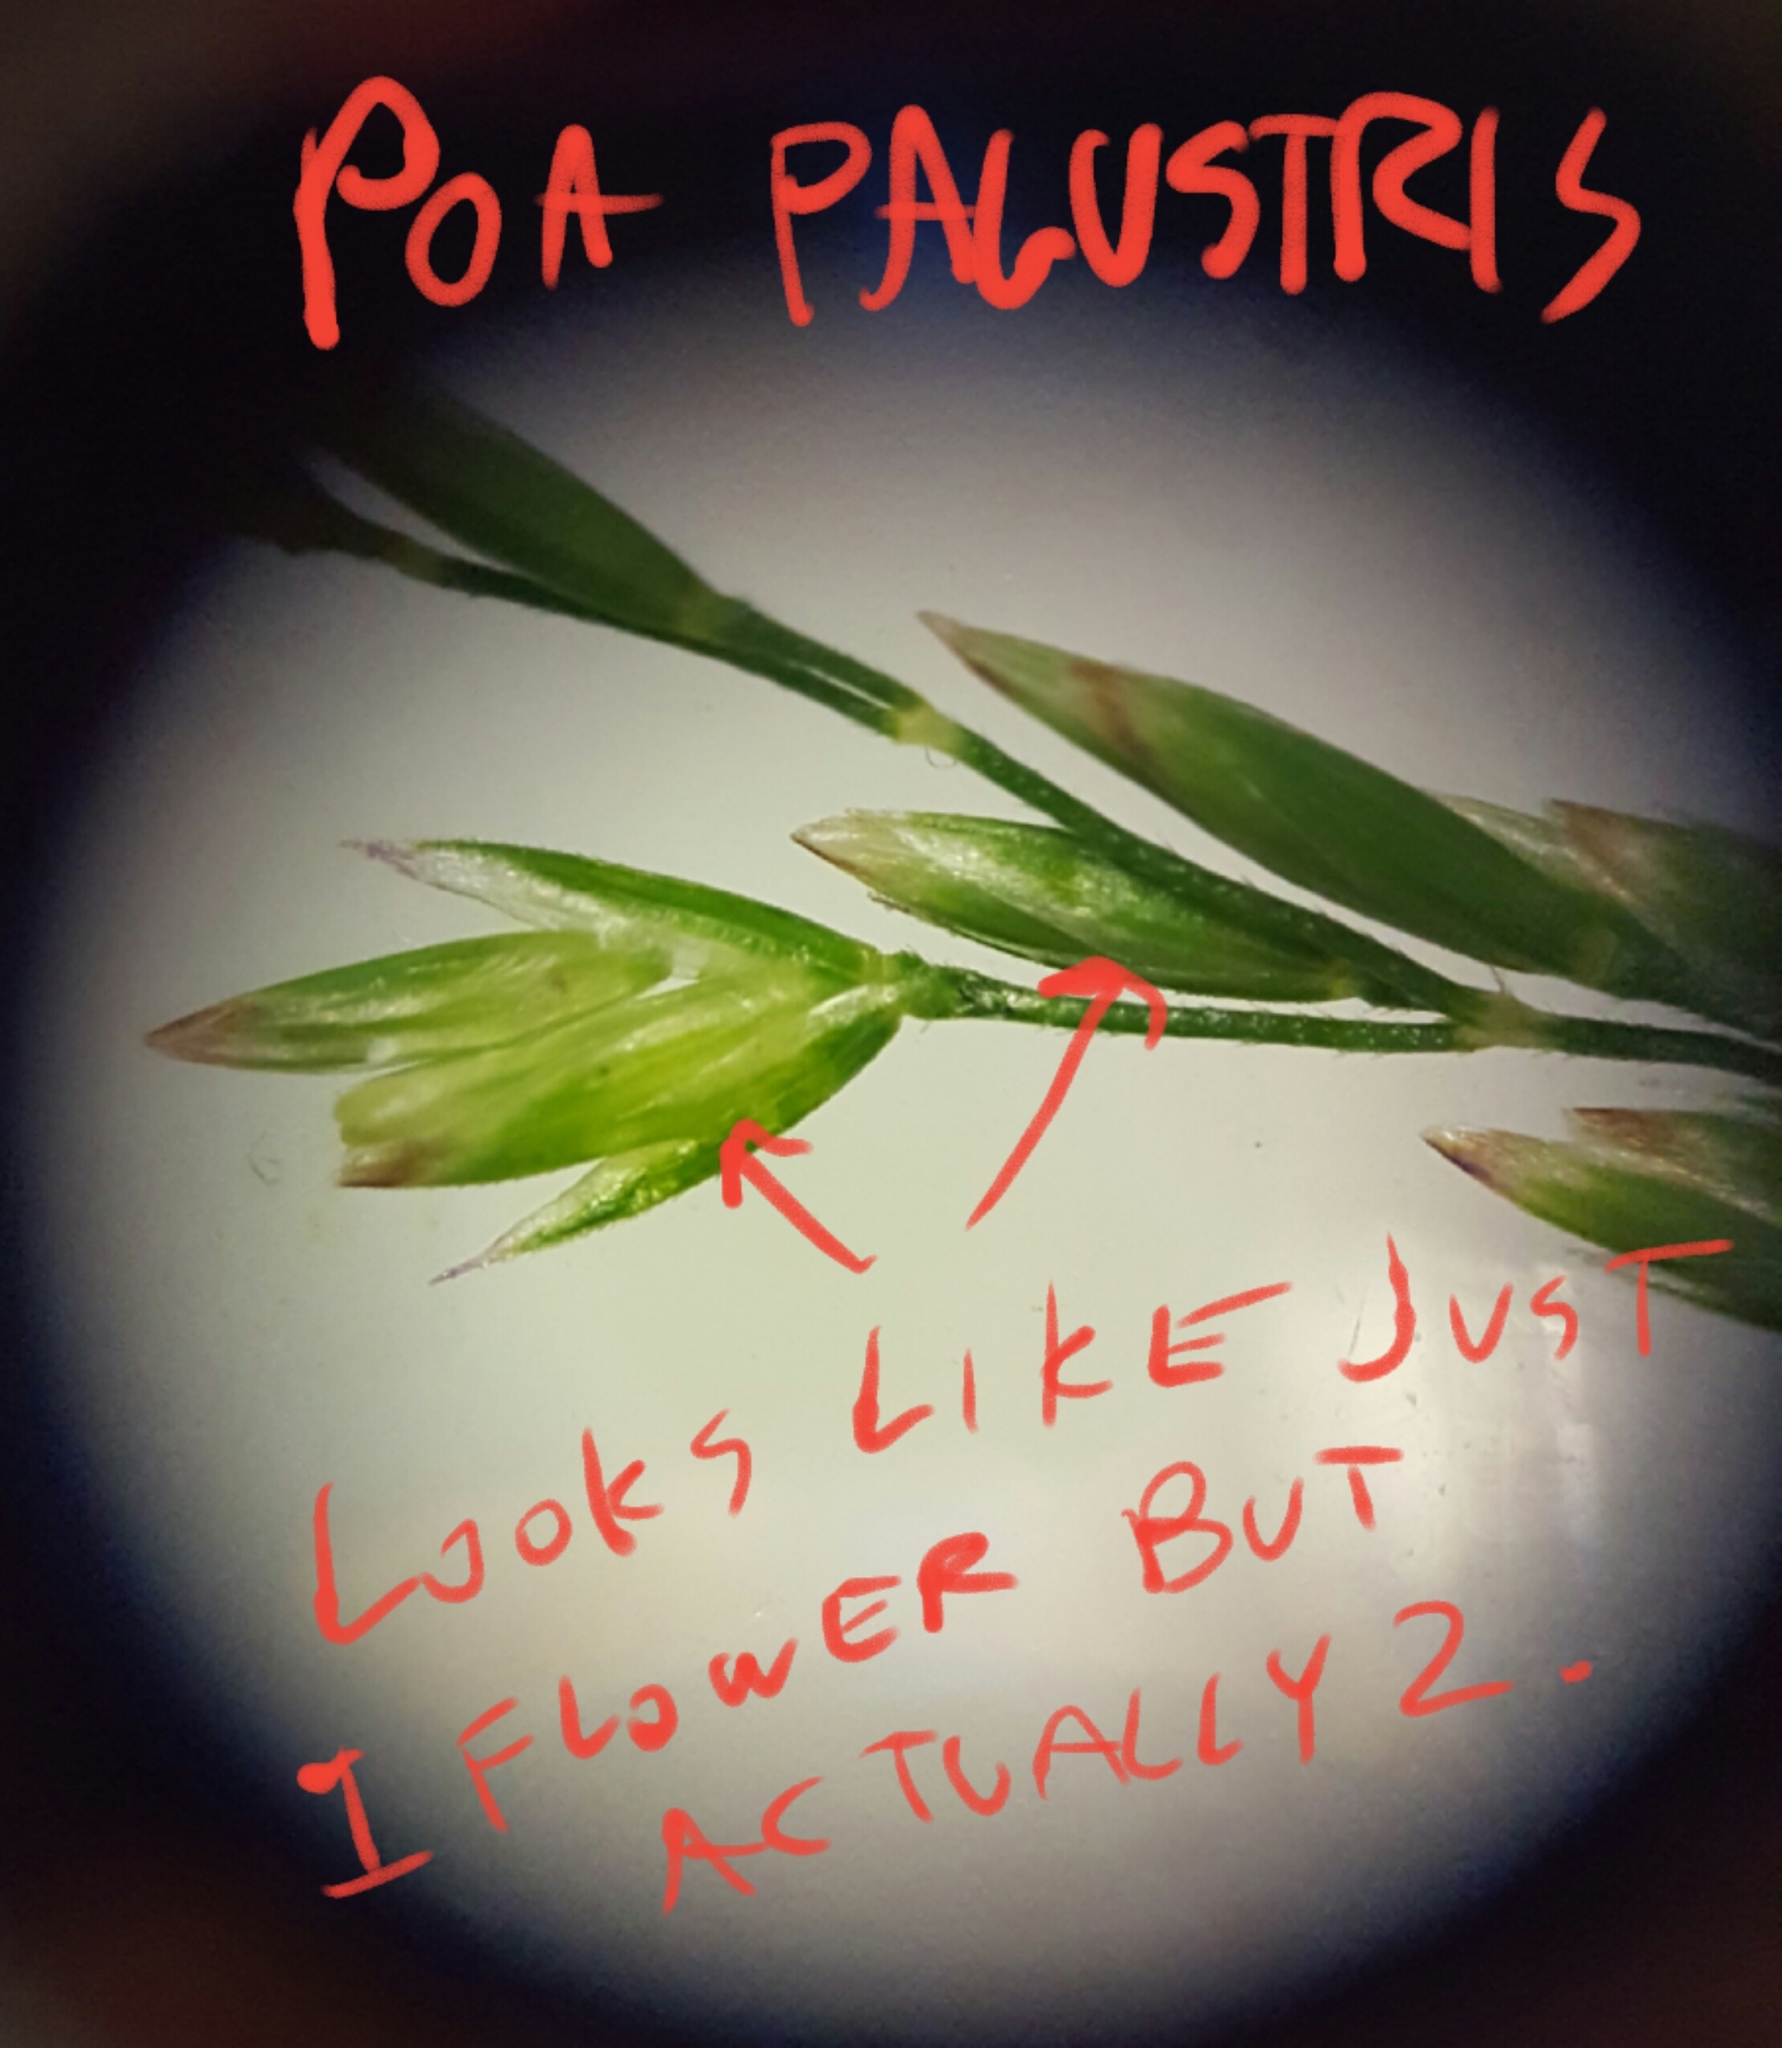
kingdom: Plantae
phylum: Tracheophyta
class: Liliopsida
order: Poales
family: Poaceae
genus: Poa
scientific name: Poa palustris
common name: Swamp meadow-grass
